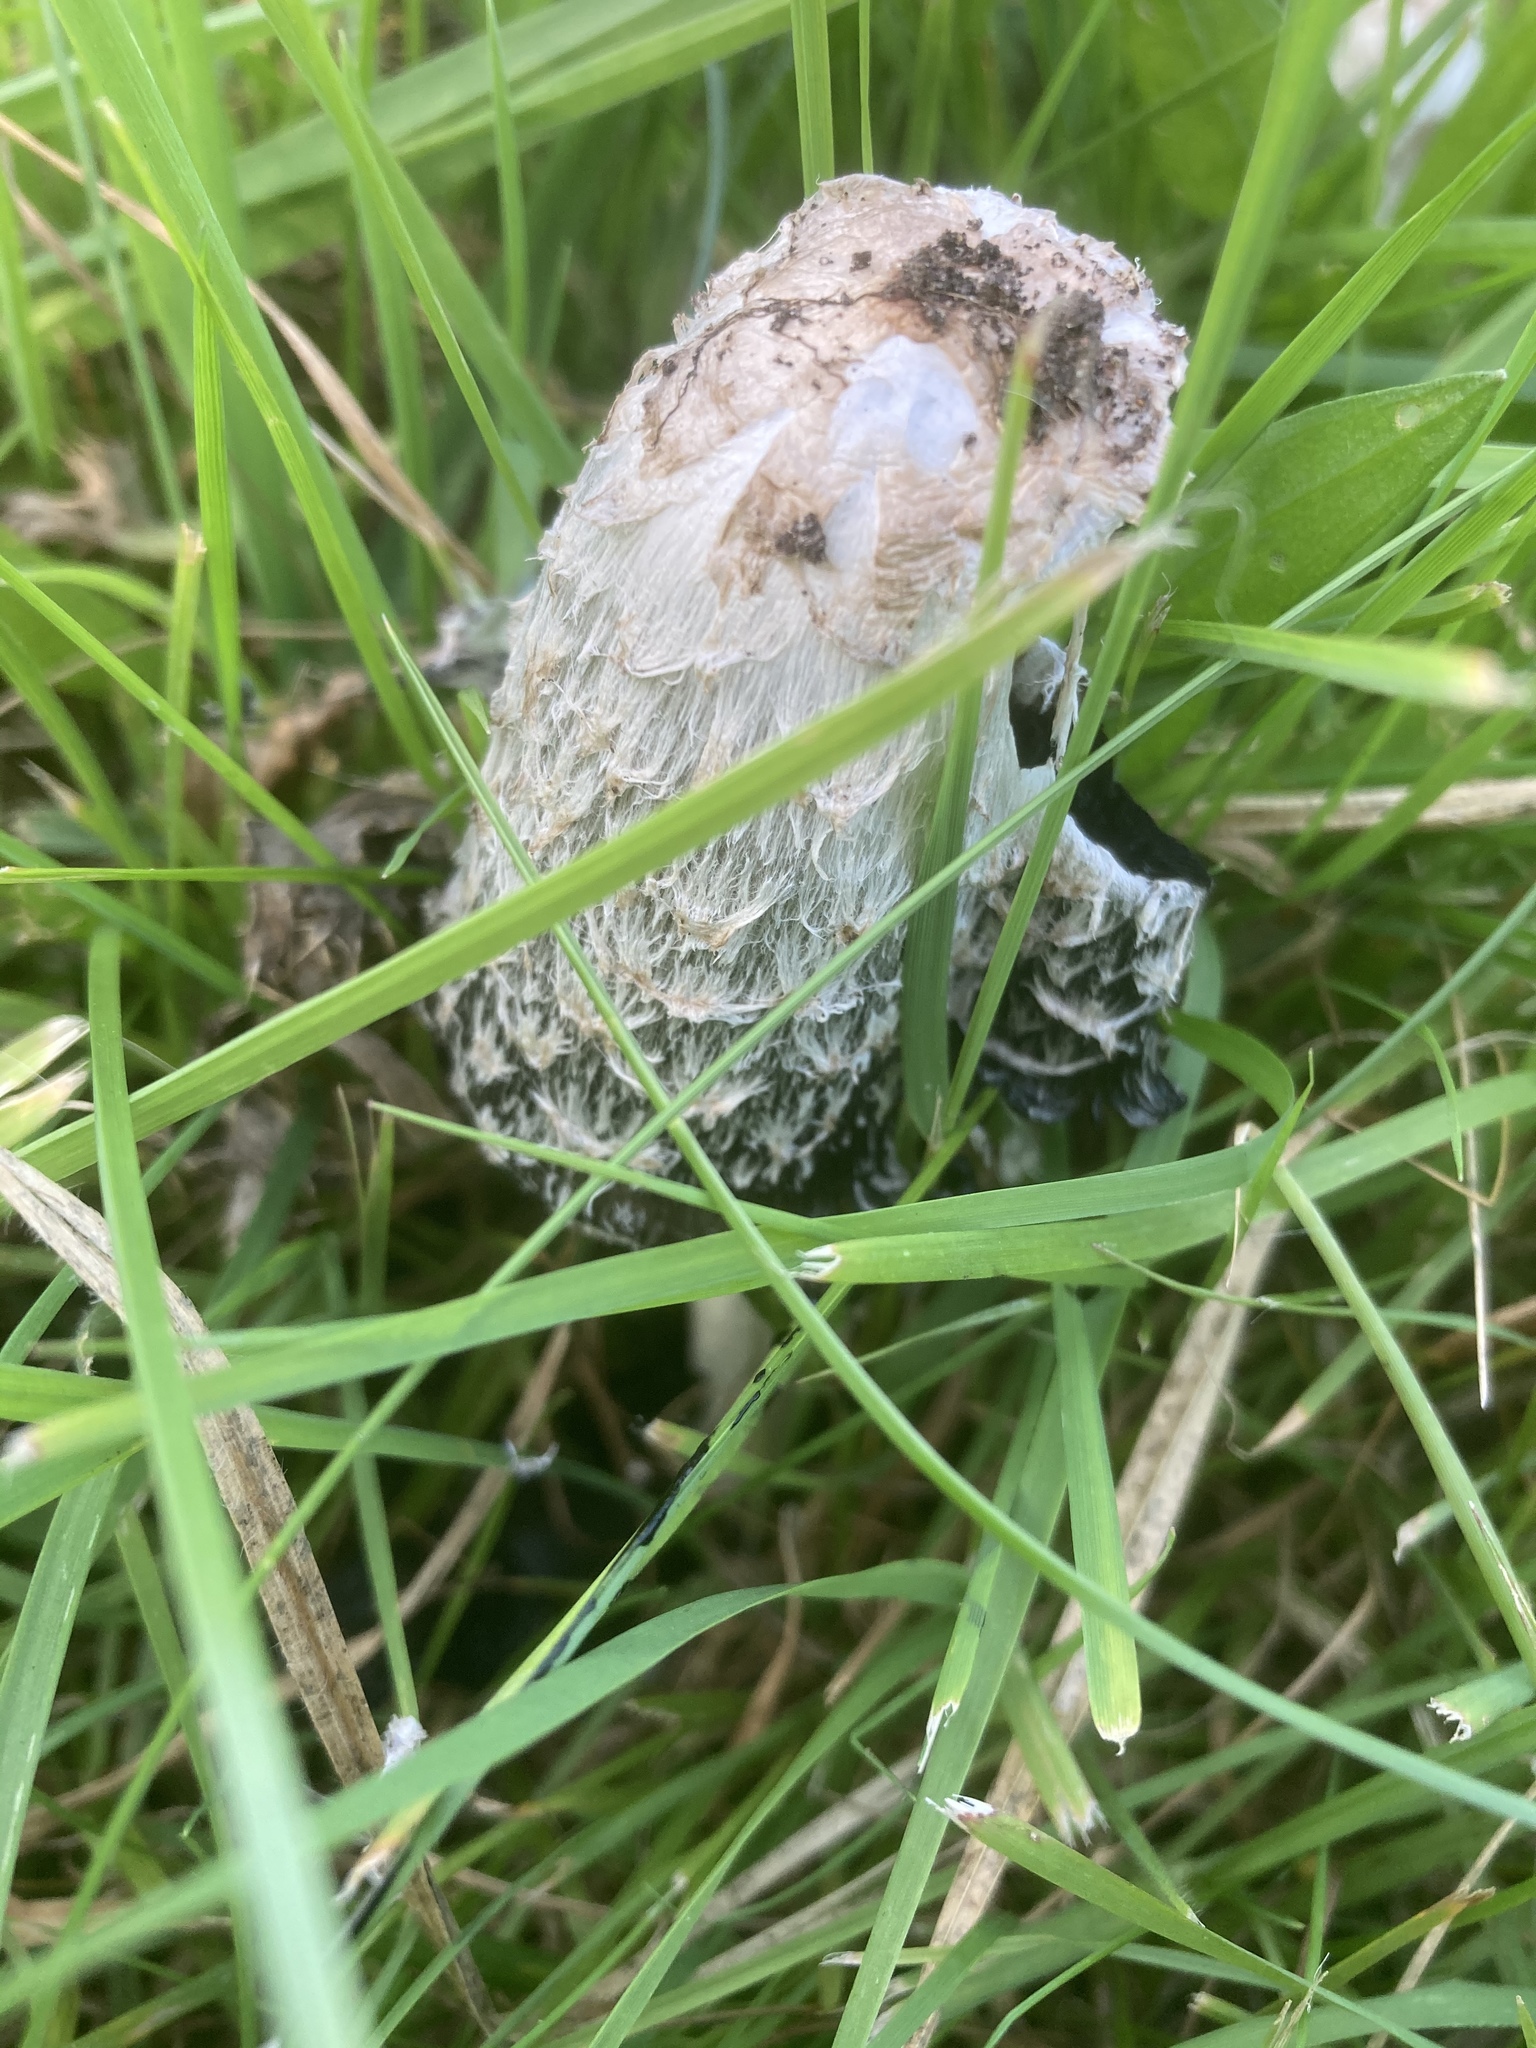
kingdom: Fungi
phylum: Basidiomycota
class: Agaricomycetes
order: Agaricales
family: Agaricaceae
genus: Coprinus
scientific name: Coprinus comatus
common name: Lawyer's wig
